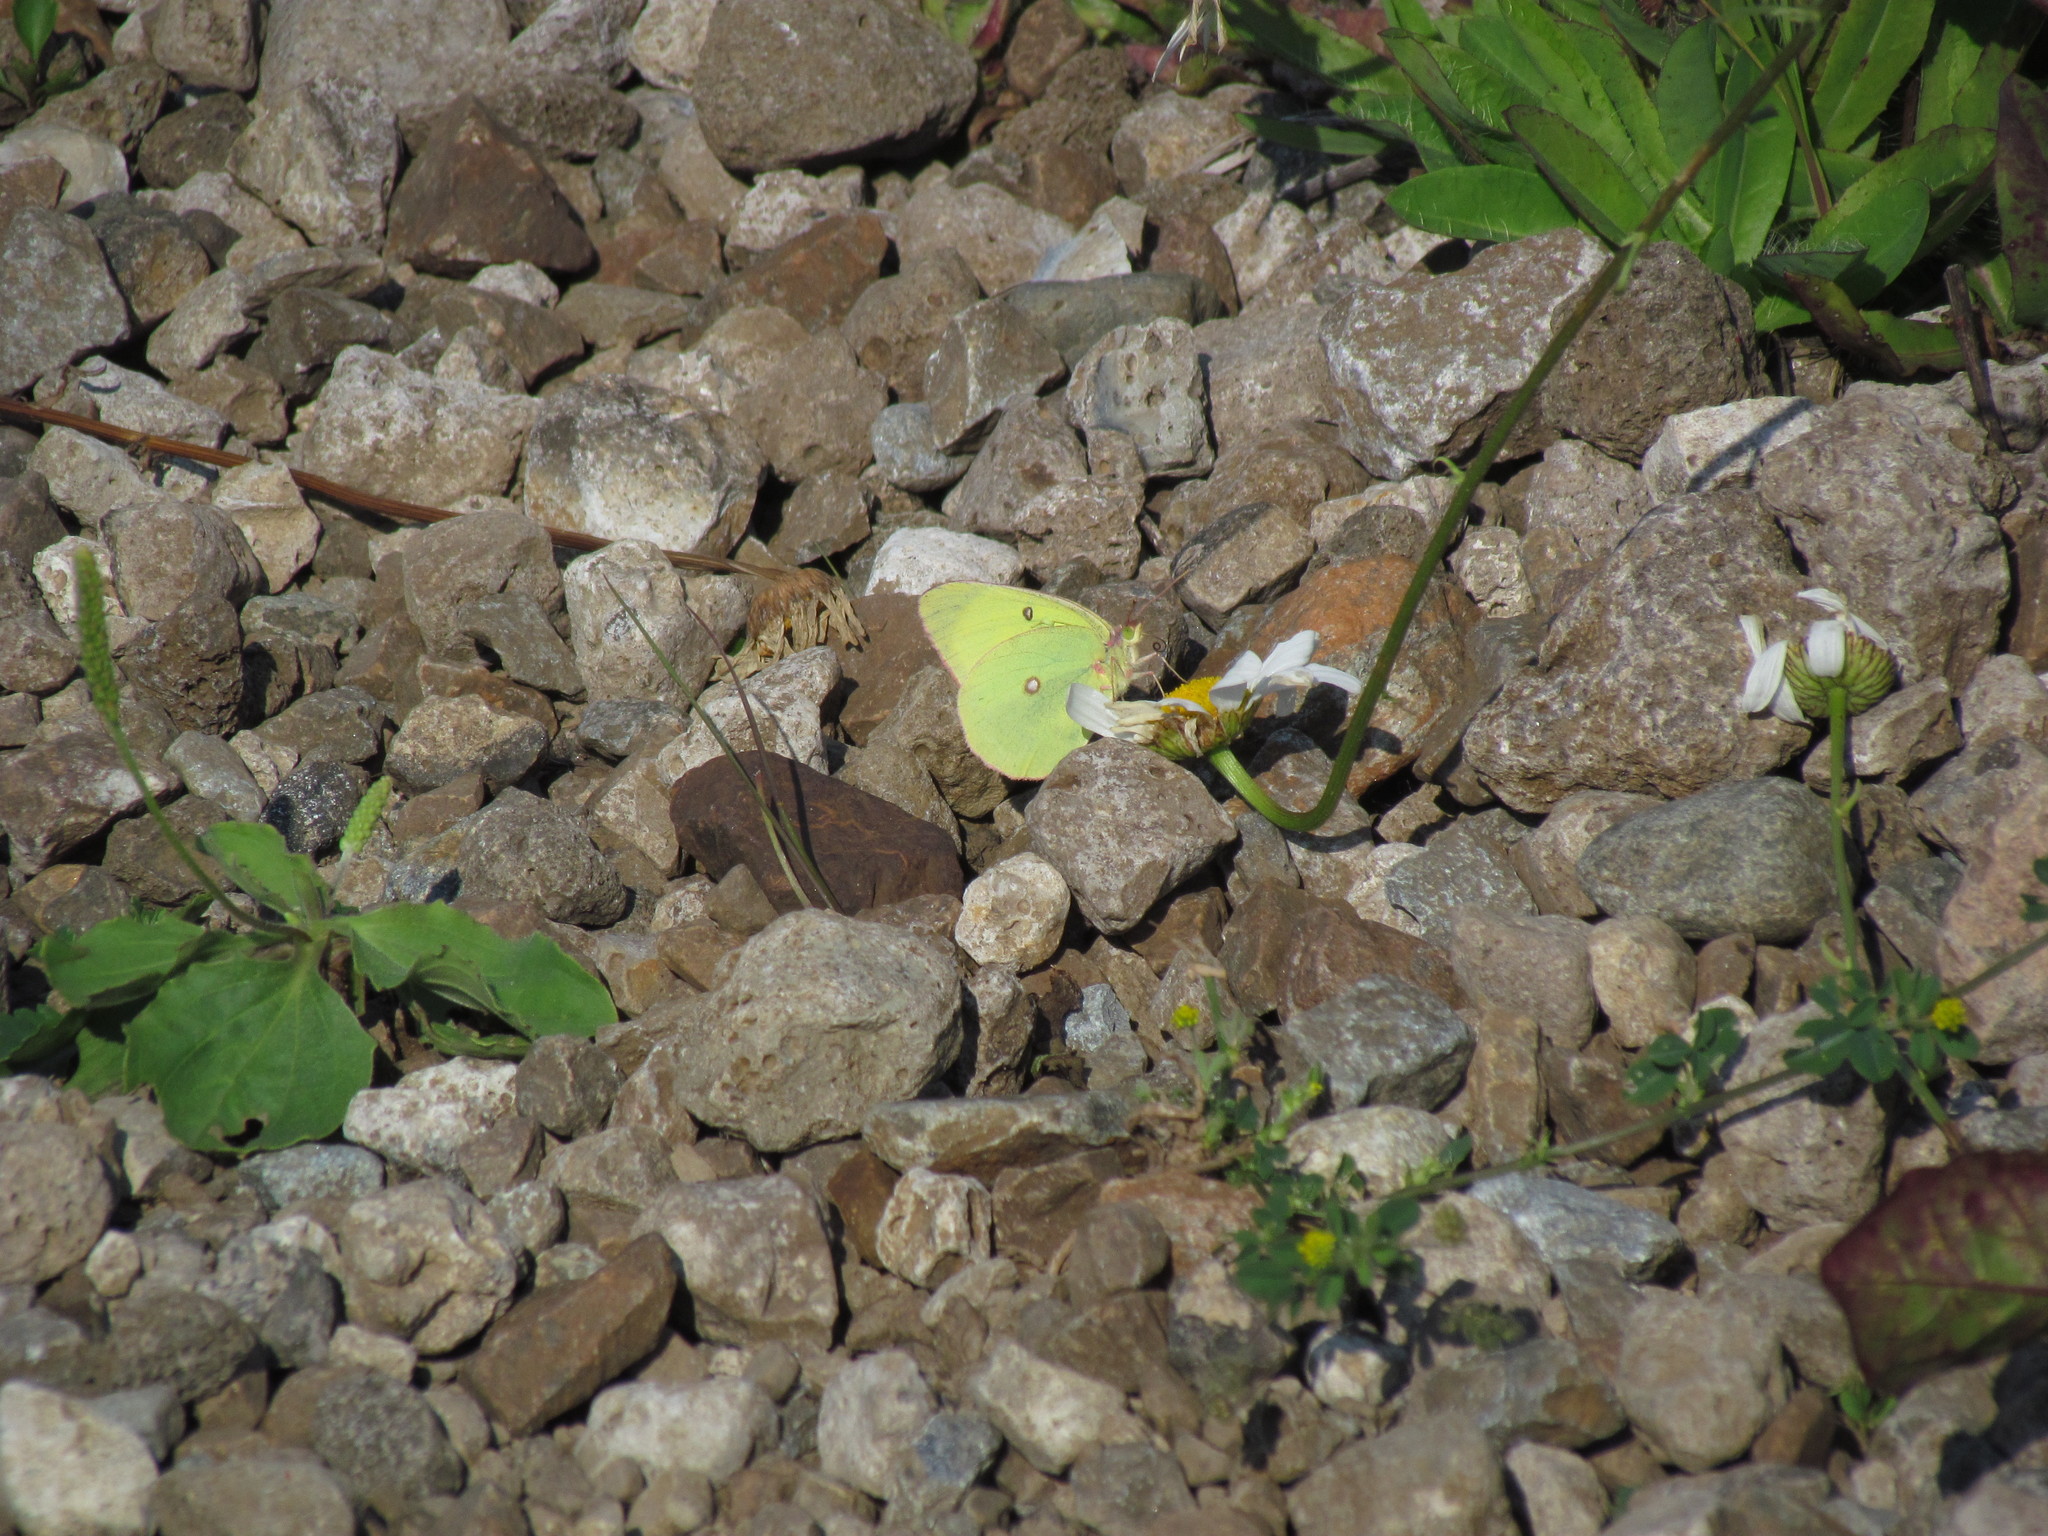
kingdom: Animalia
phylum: Arthropoda
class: Insecta
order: Lepidoptera
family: Pieridae
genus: Colias
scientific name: Colias interior
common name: Pink-edged sulphur
